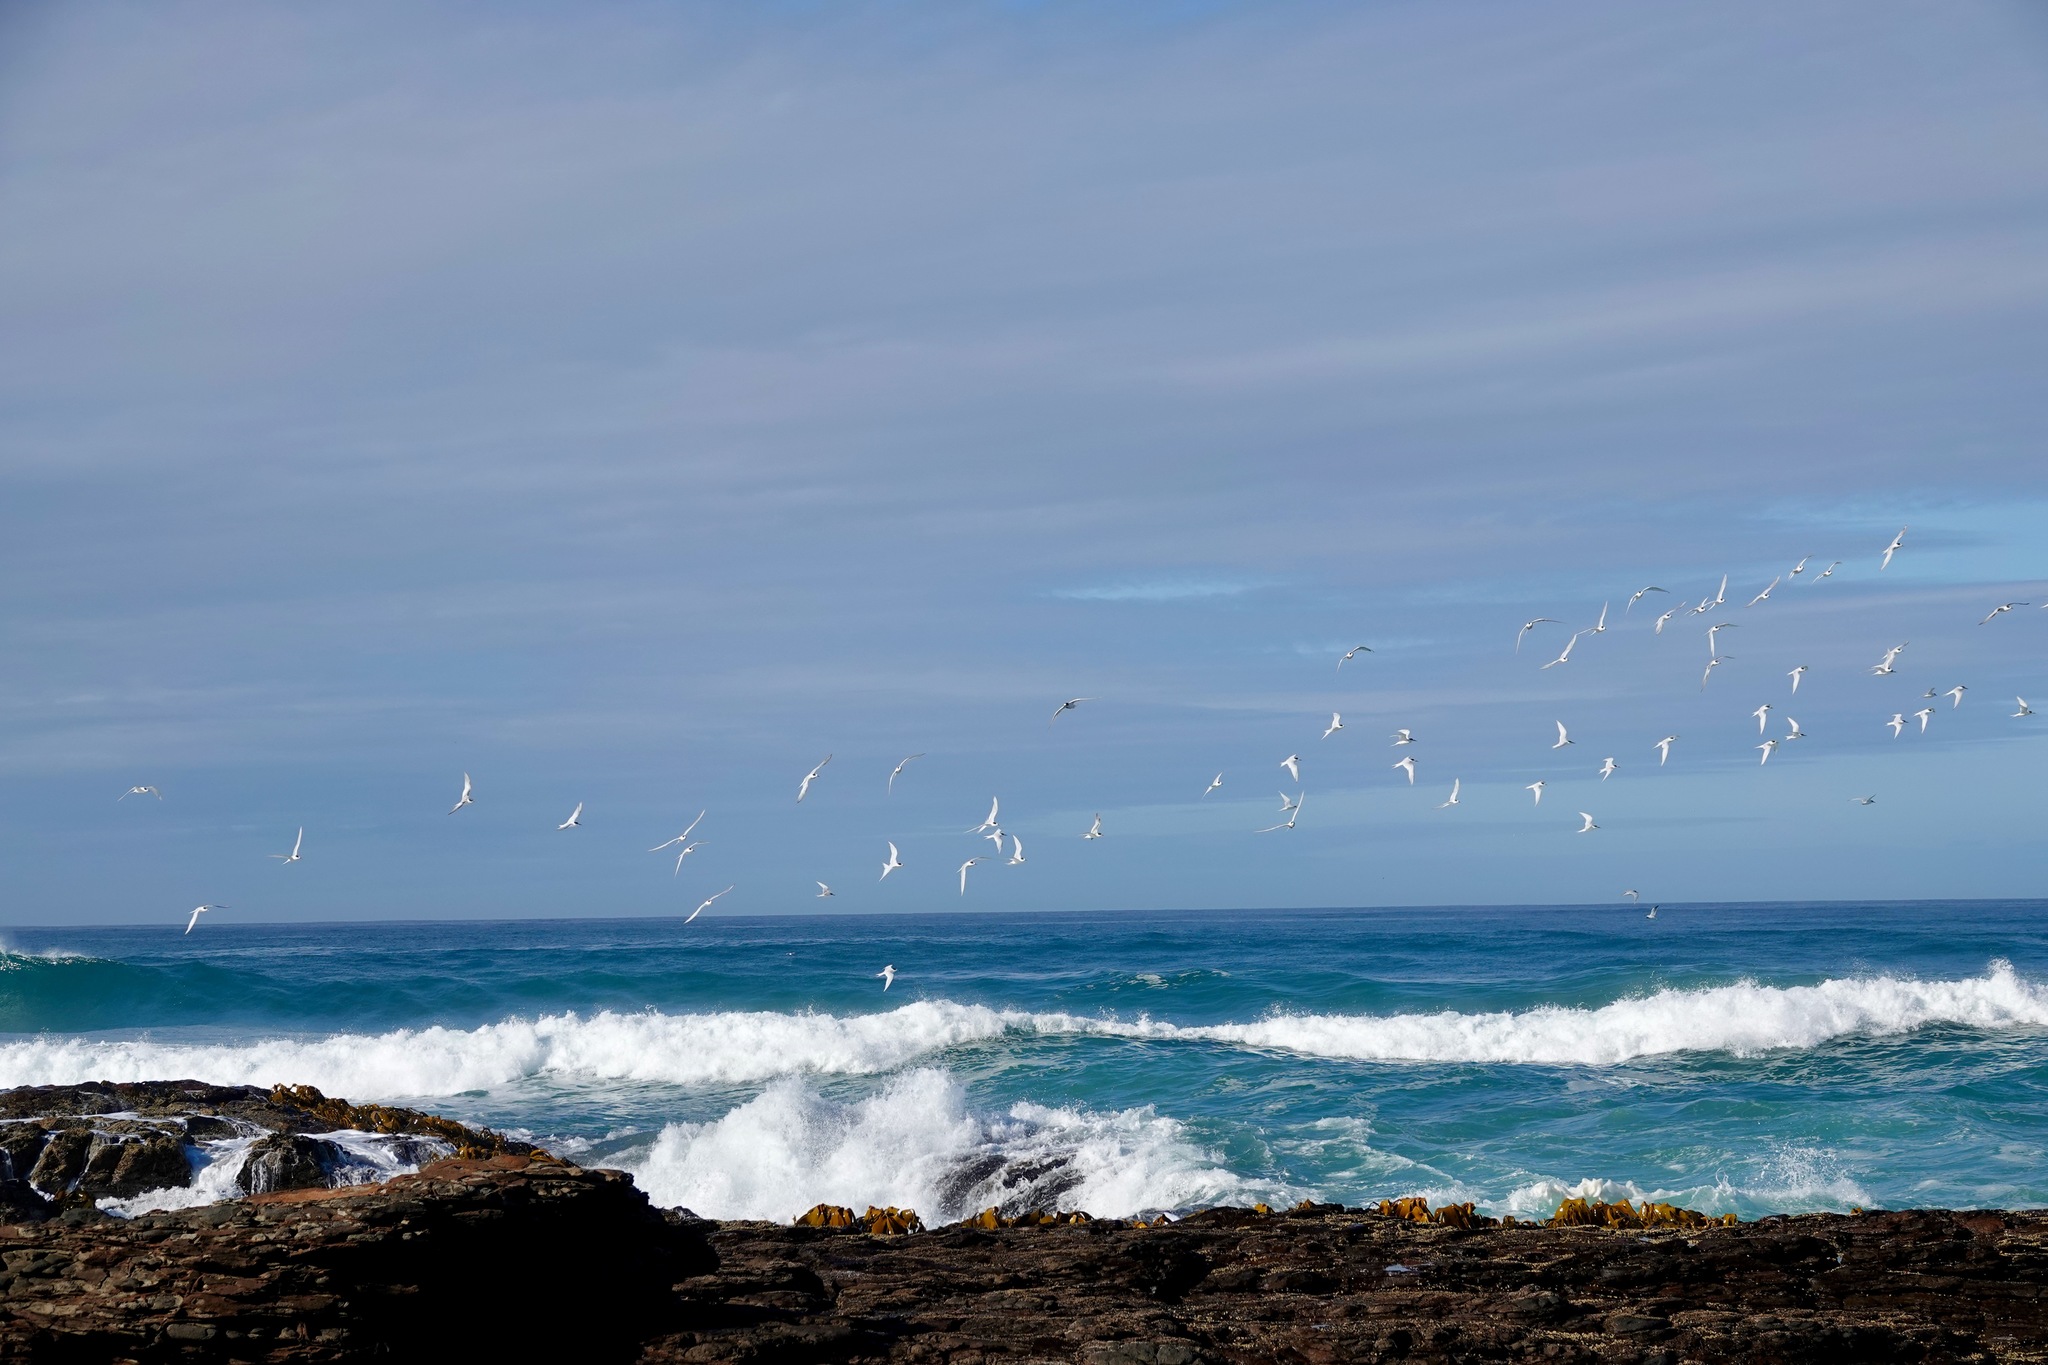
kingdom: Animalia
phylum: Chordata
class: Aves
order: Charadriiformes
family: Laridae
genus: Sterna
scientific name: Sterna striata
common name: White-fronted tern
